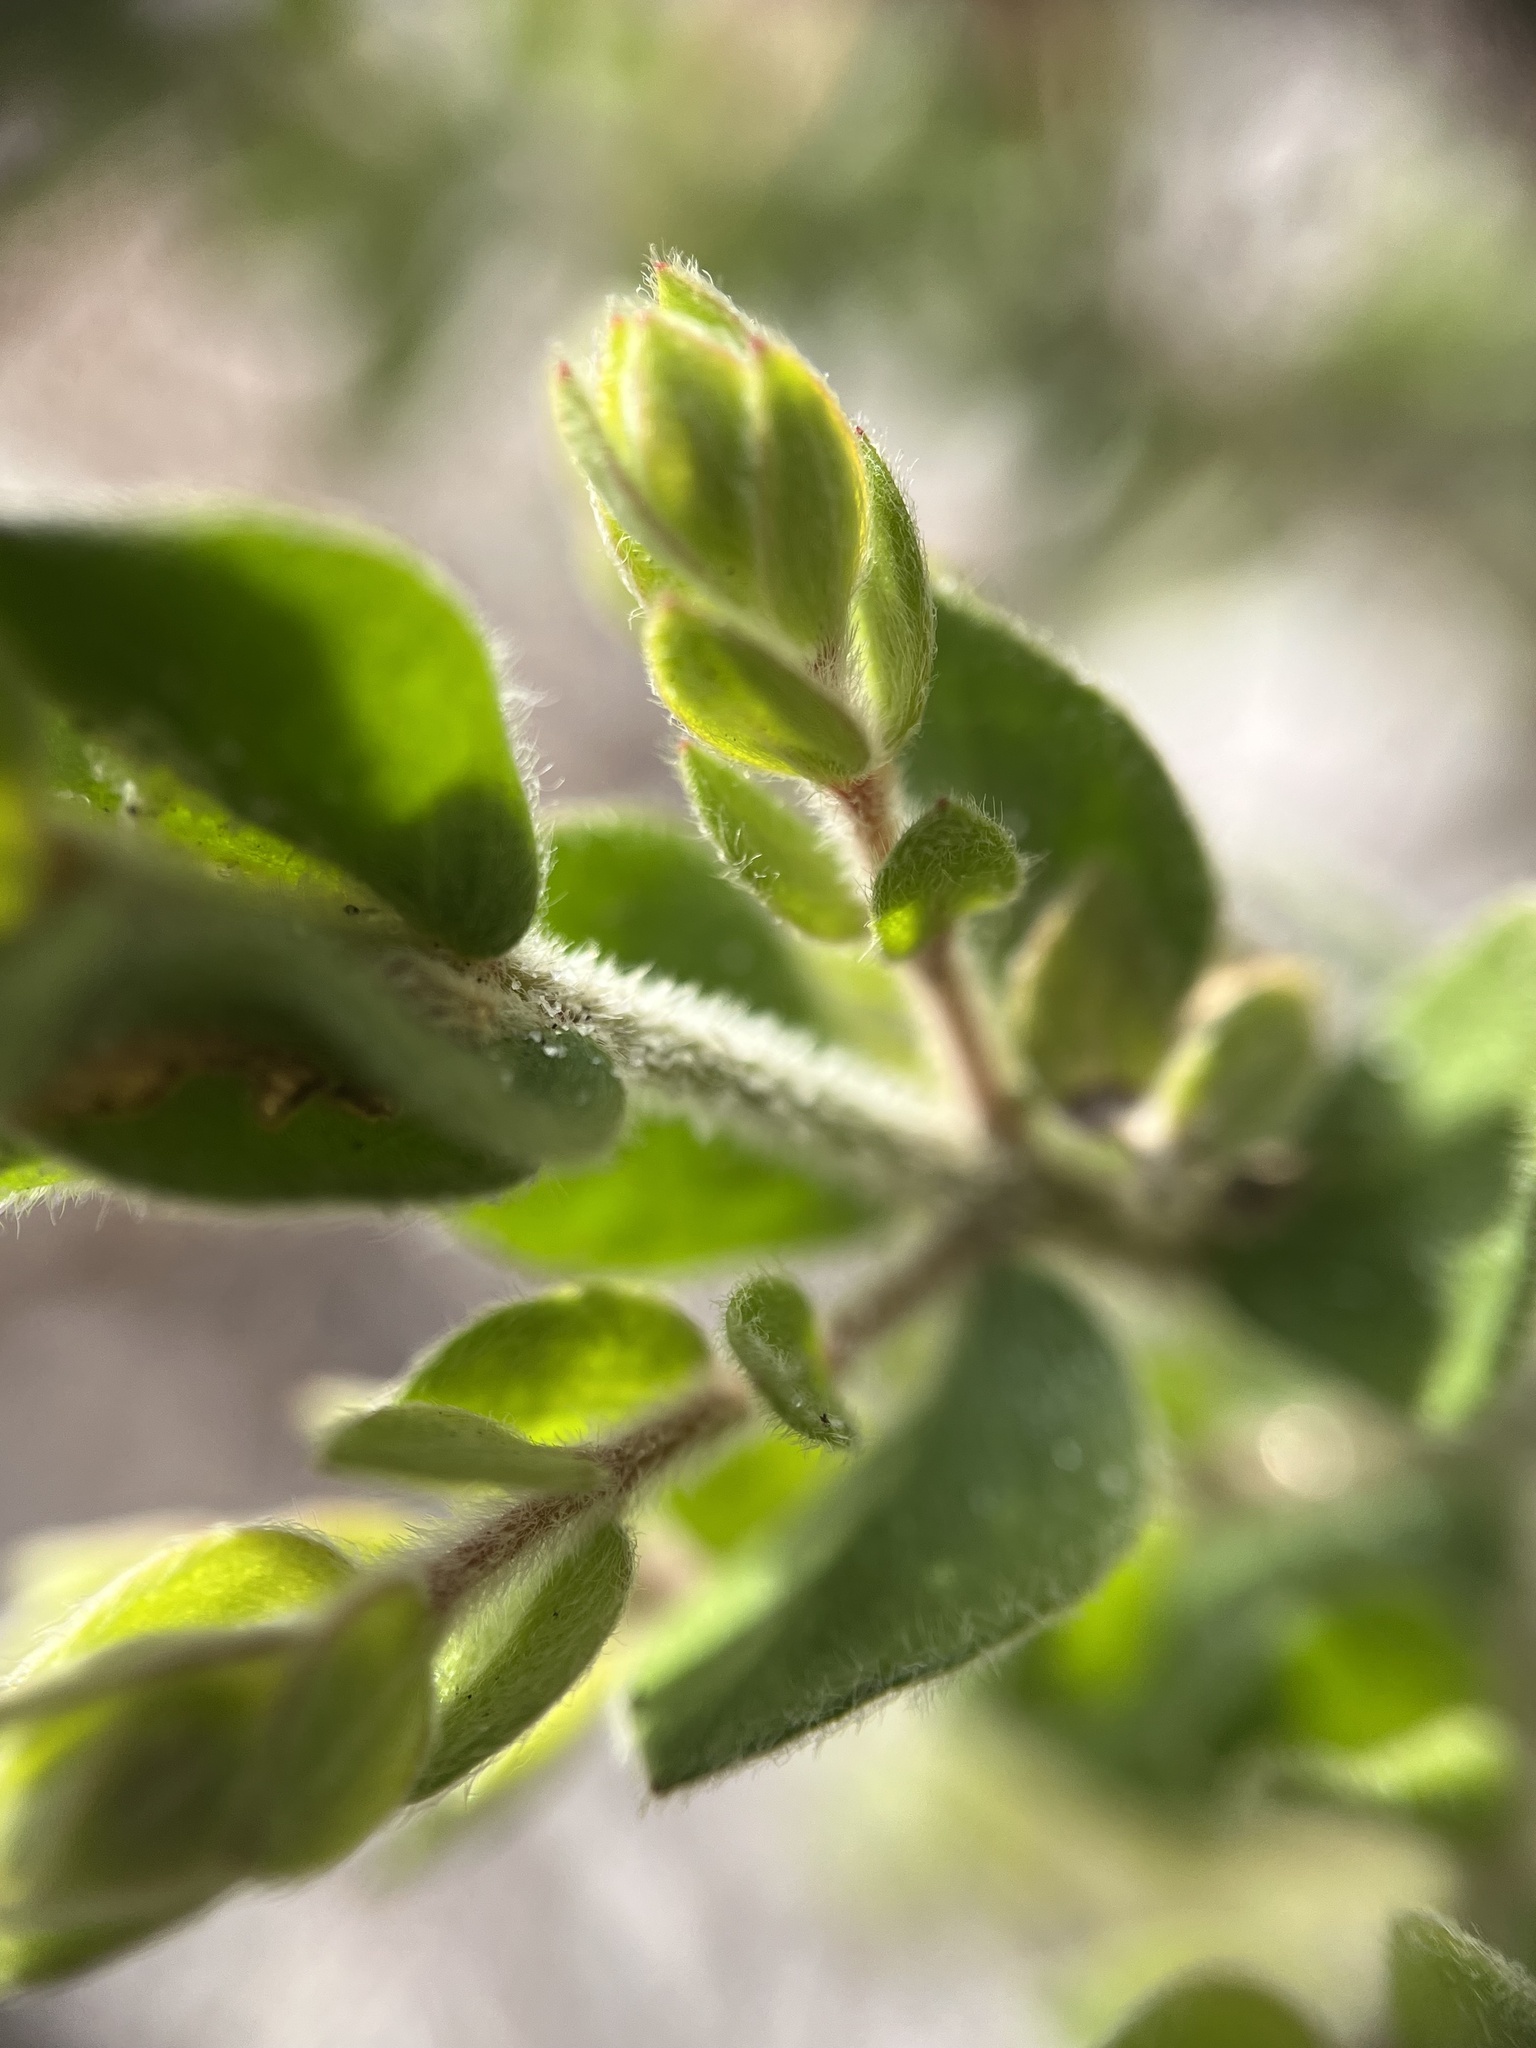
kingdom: Plantae
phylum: Tracheophyta
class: Magnoliopsida
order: Malvales
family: Cistaceae
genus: Lechea
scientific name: Lechea cernua
